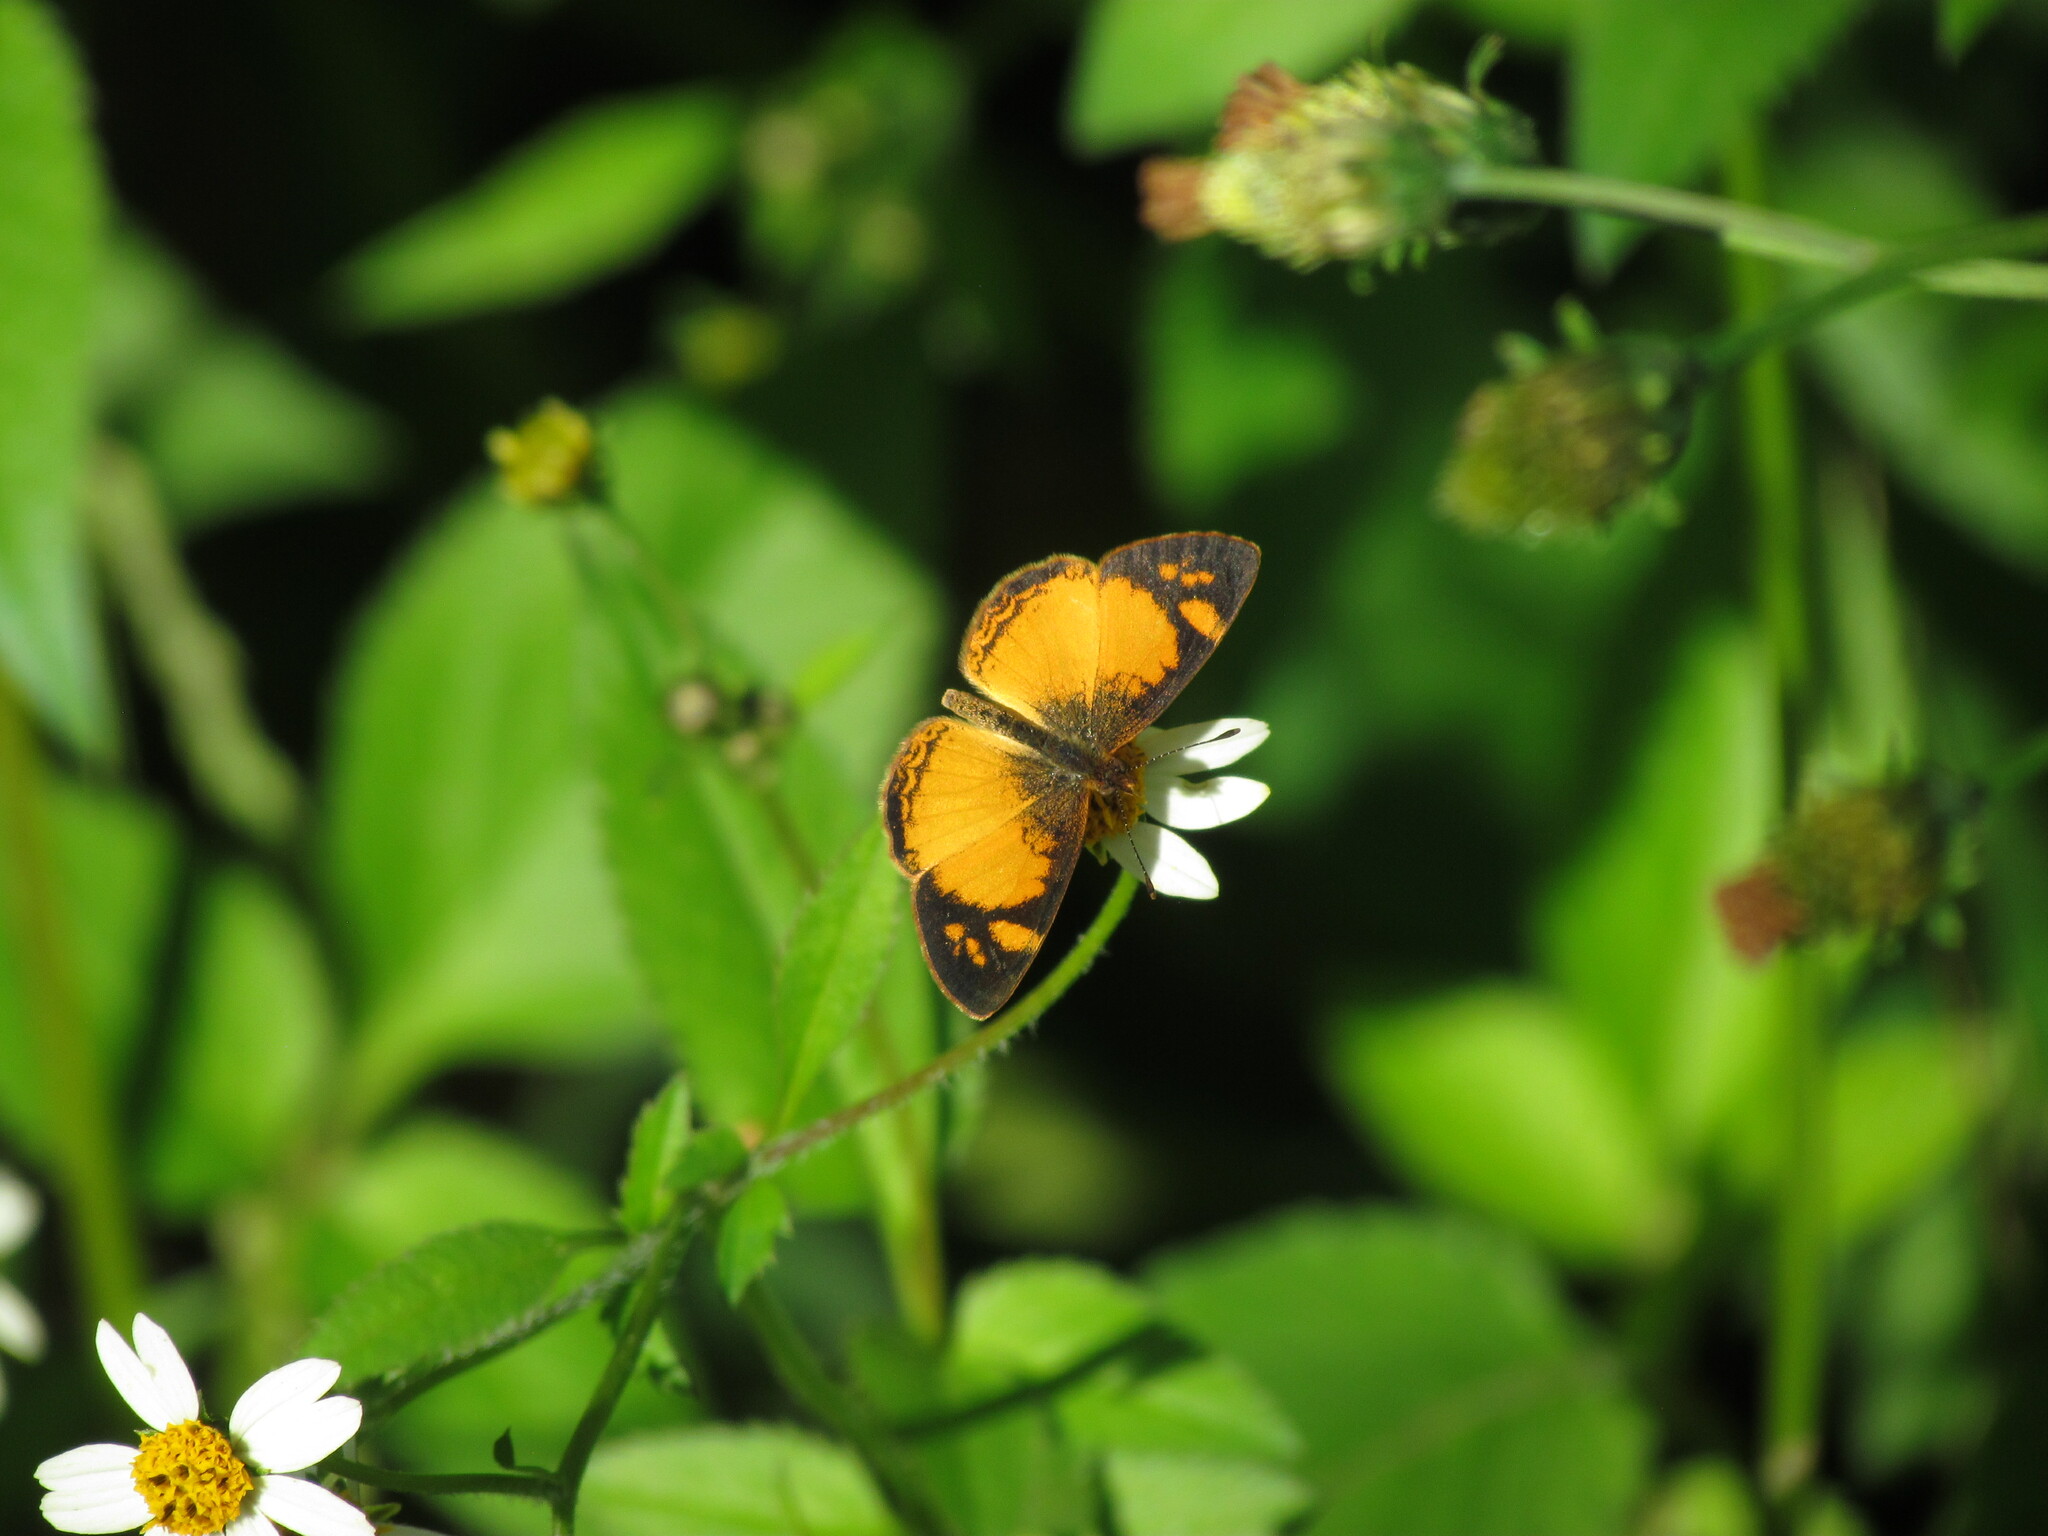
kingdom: Animalia
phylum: Arthropoda
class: Insecta
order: Lepidoptera
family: Nymphalidae
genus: Tegosa
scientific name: Tegosa claudina
